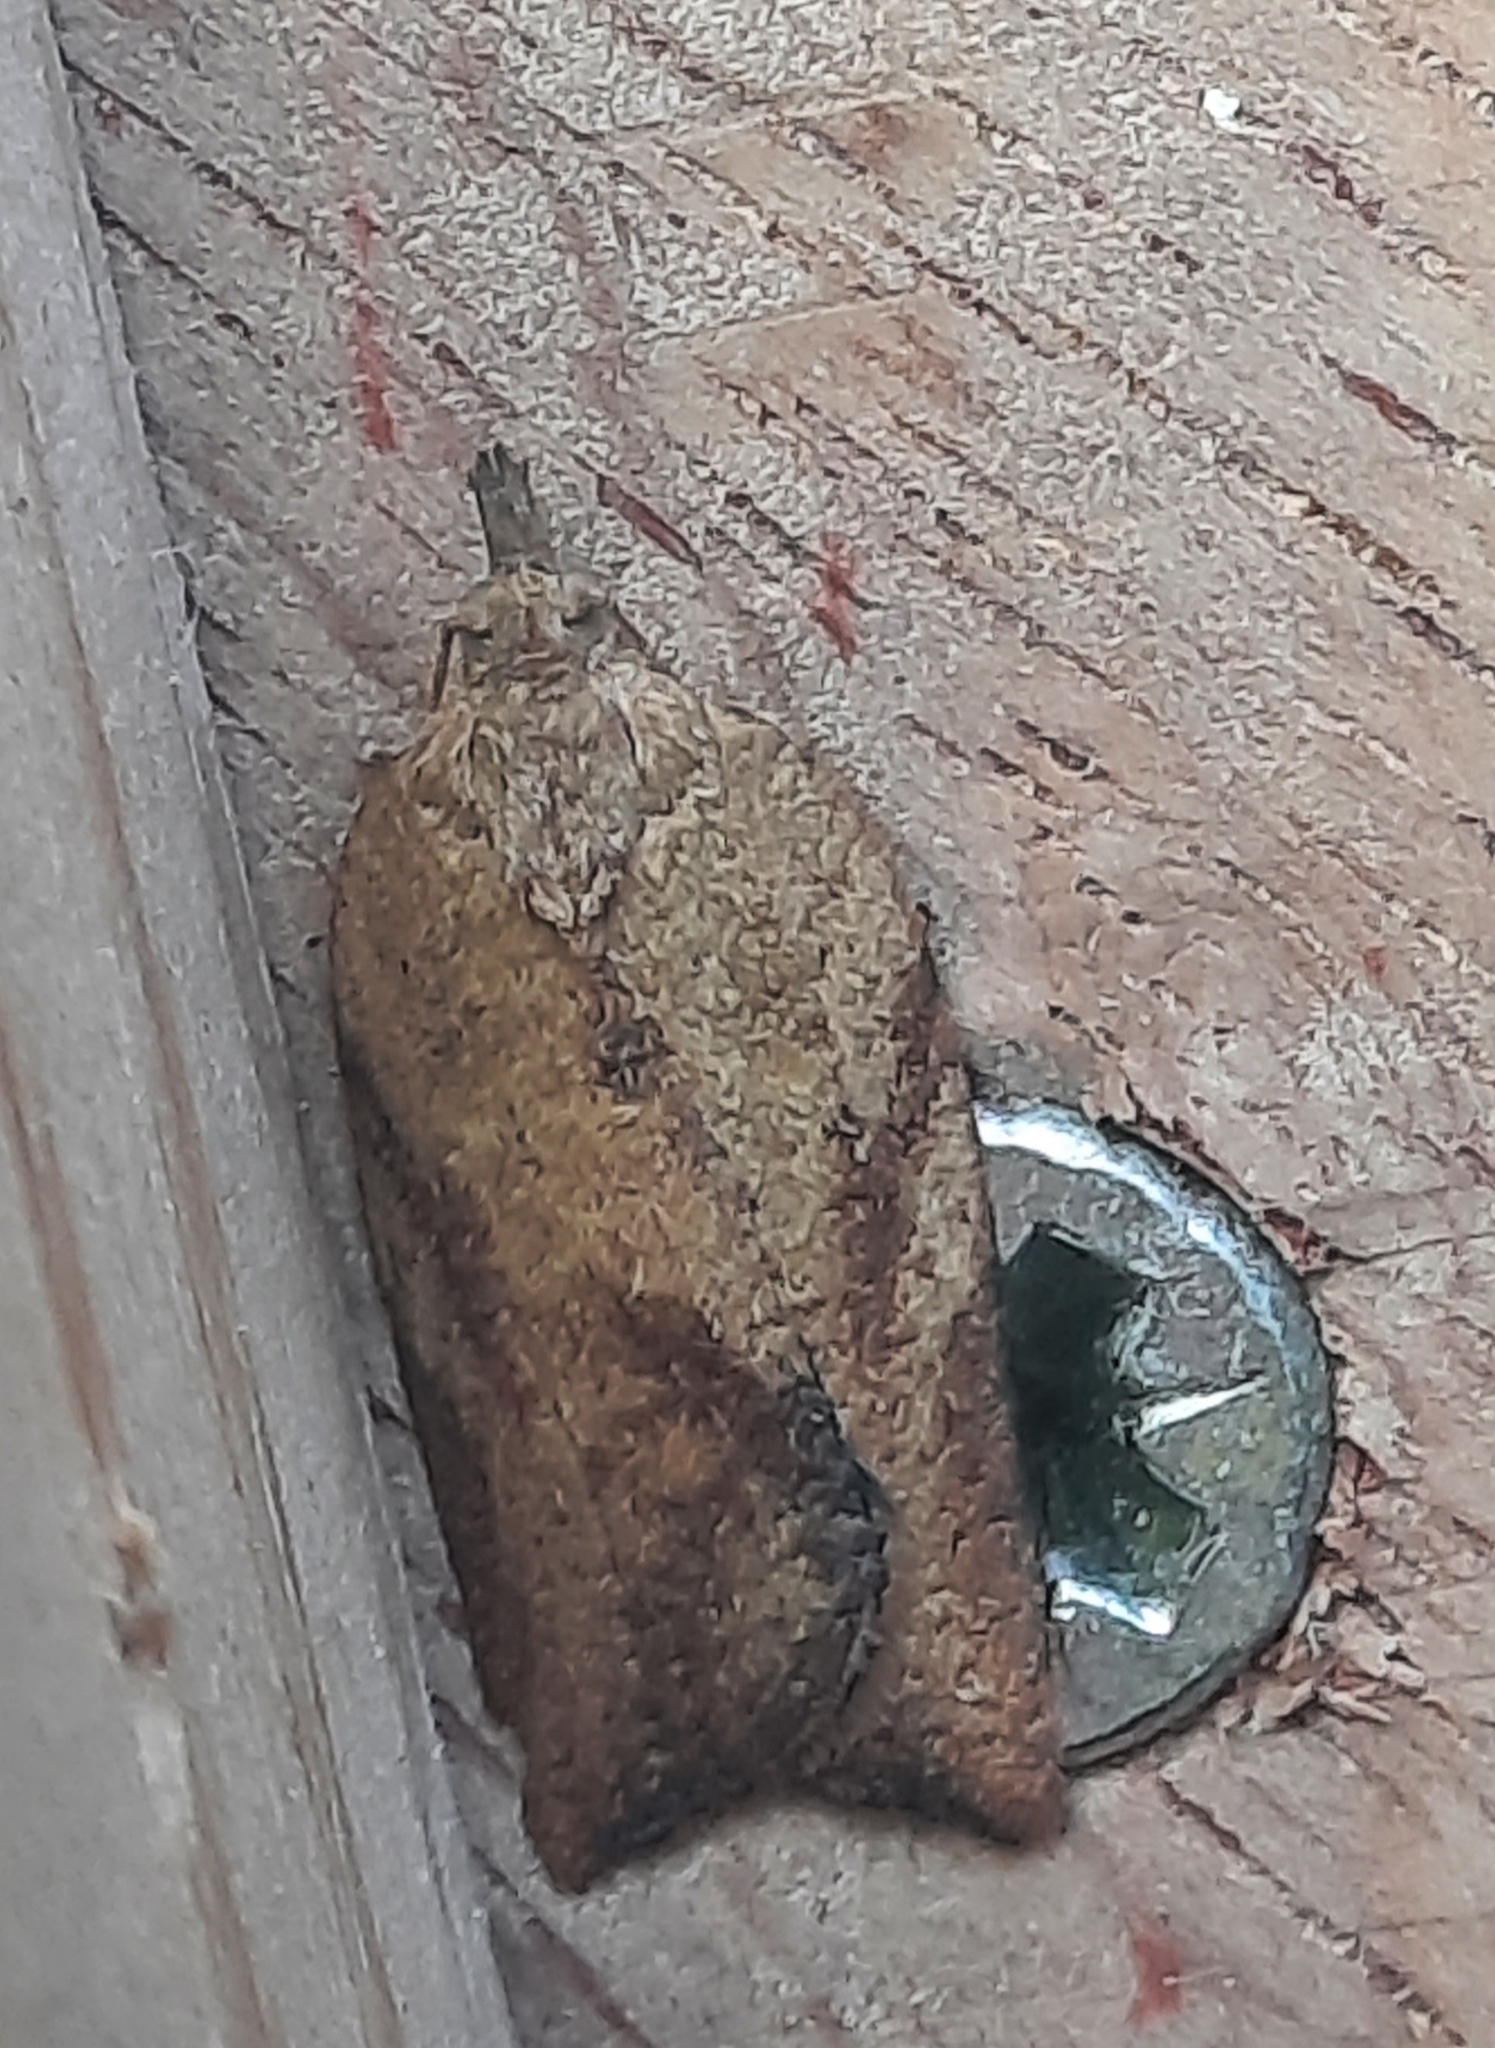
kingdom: Animalia
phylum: Arthropoda
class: Insecta
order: Lepidoptera
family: Tortricidae
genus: Epiphyas
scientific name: Epiphyas postvittana
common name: Light brown apple moth
